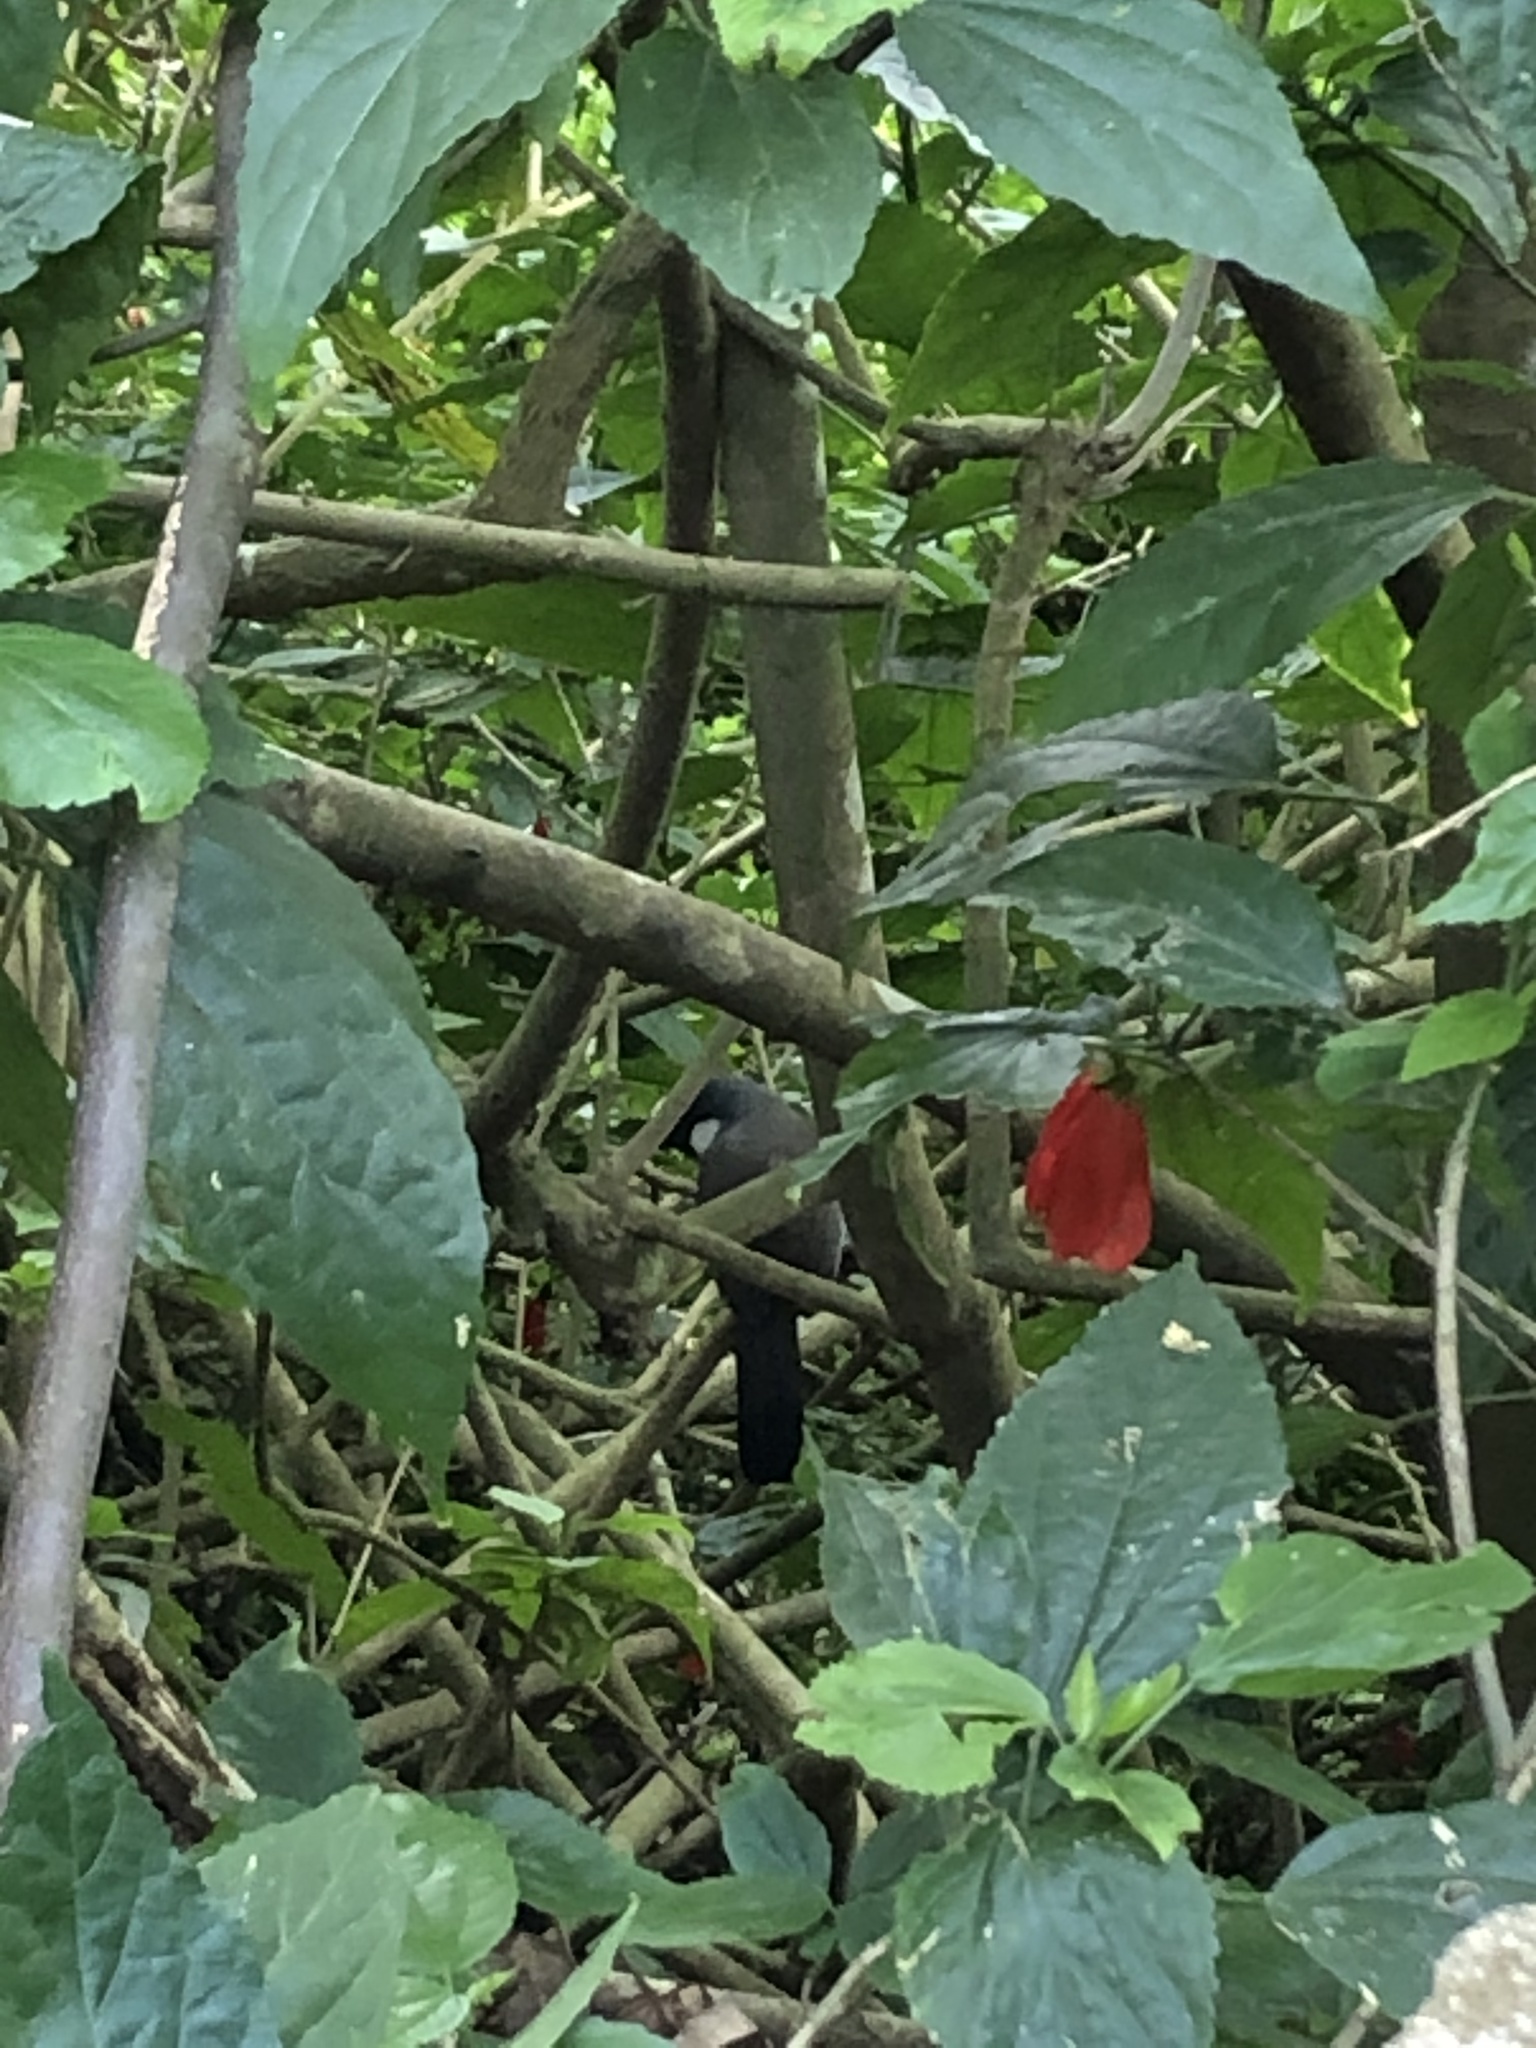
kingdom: Animalia
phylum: Chordata
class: Aves
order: Passeriformes
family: Leiothrichidae
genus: Garrulax
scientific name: Garrulax chinensis
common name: Black-throated laughingthrush
